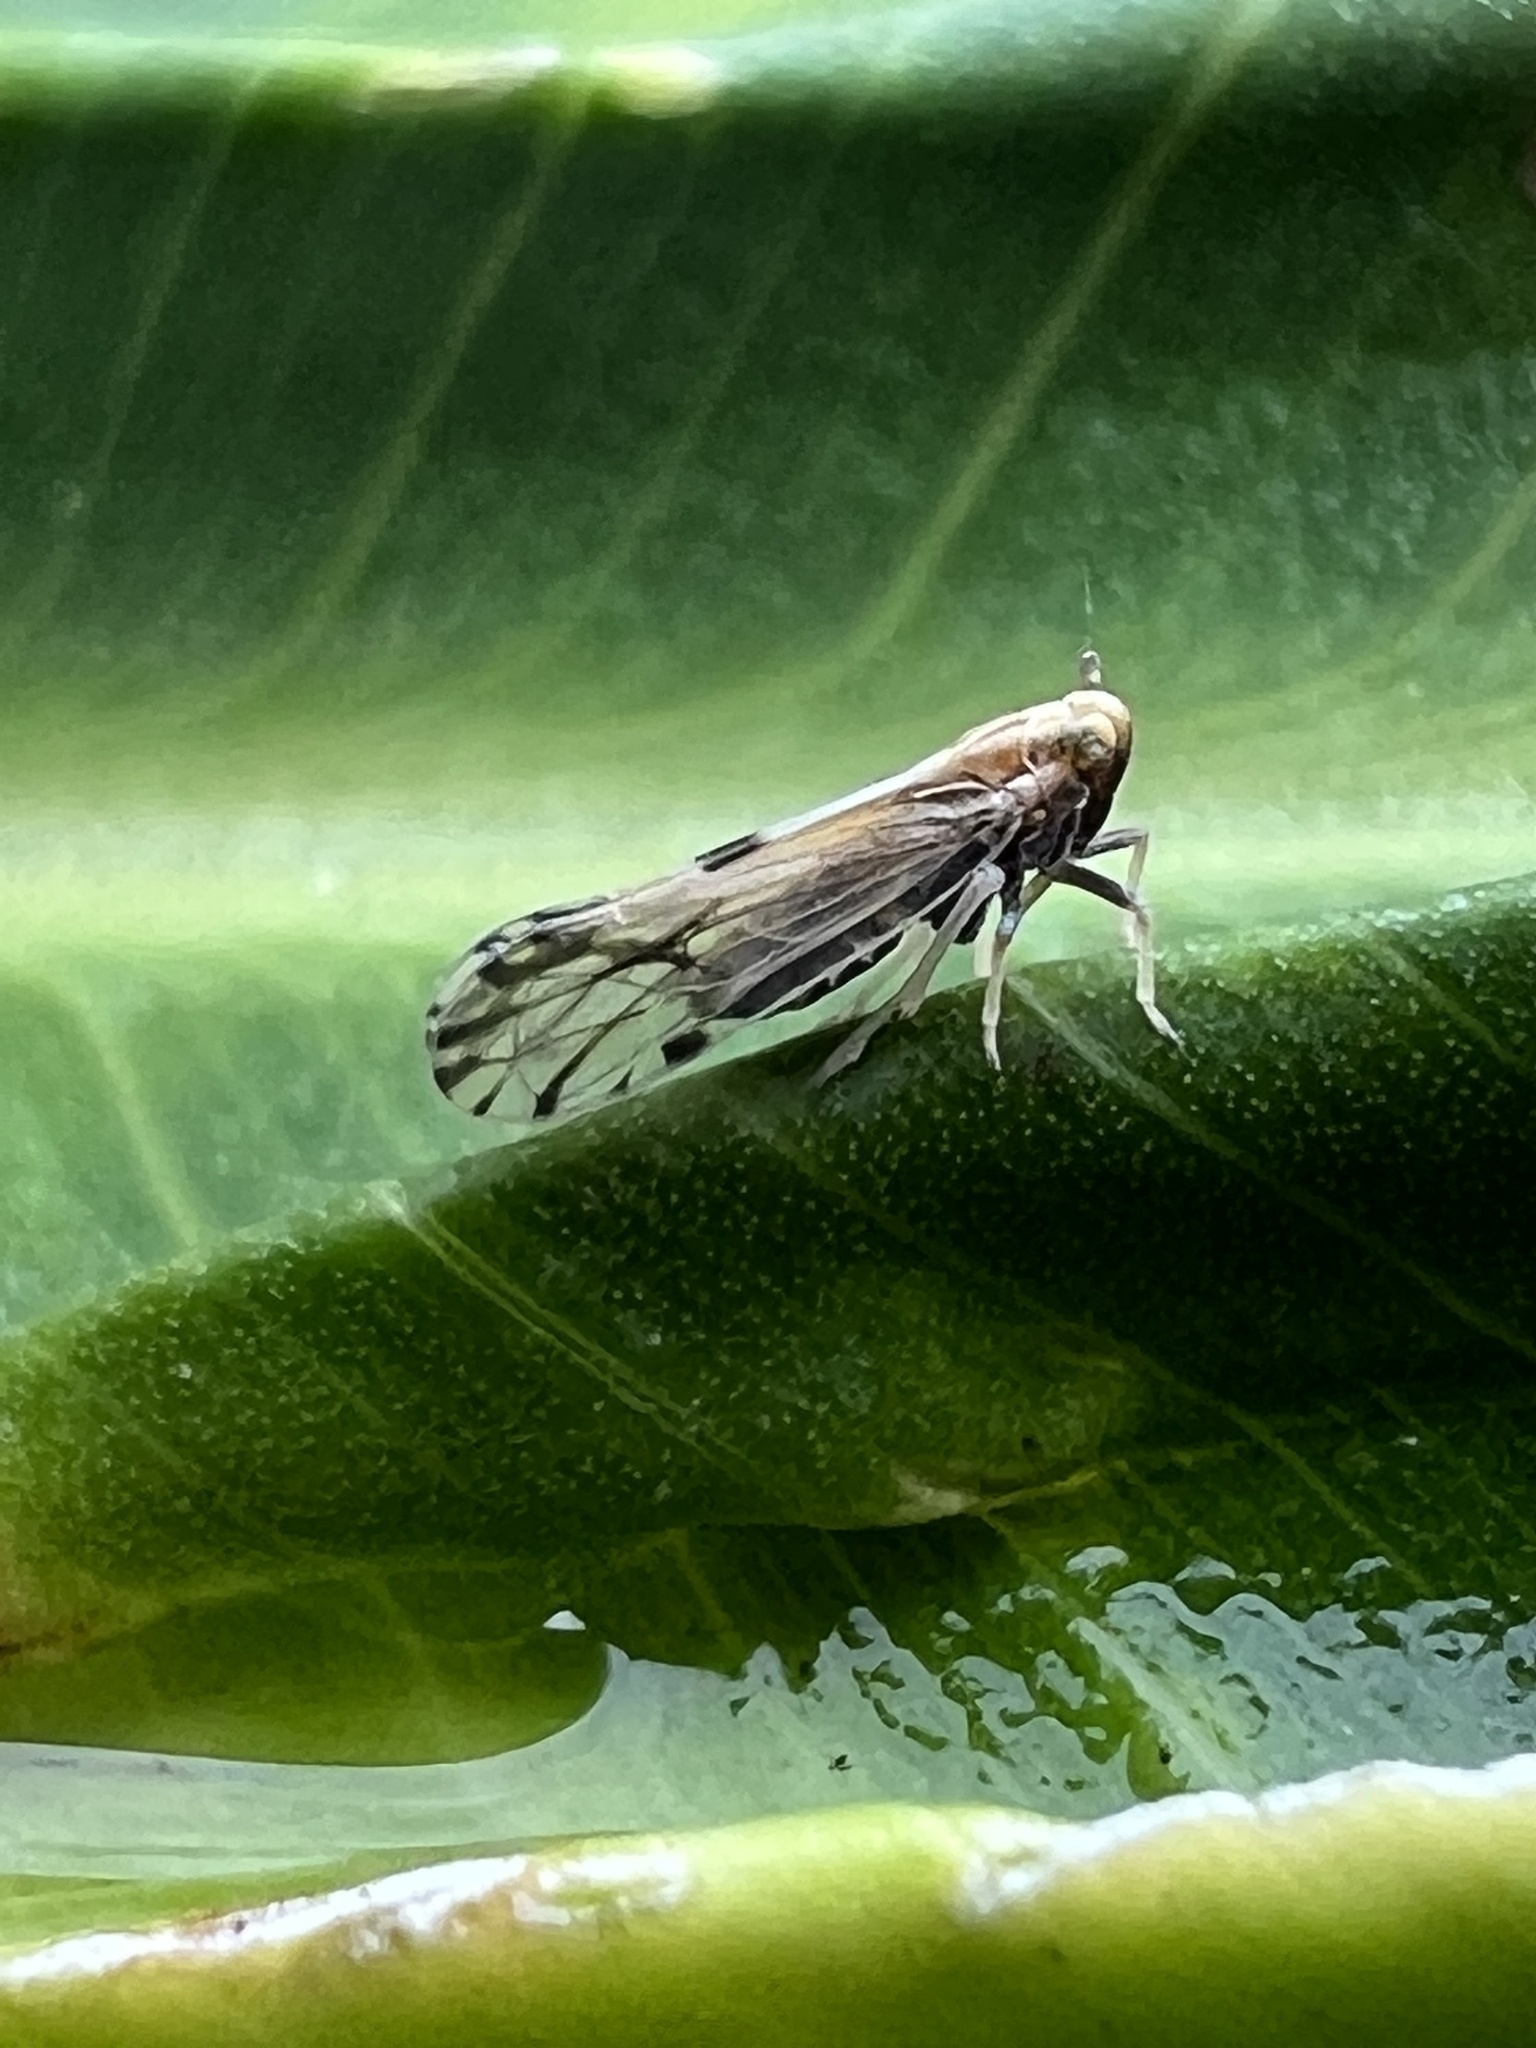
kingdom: Animalia
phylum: Arthropoda
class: Insecta
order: Hemiptera
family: Delphacidae
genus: Peregrinus
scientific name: Peregrinus maidis
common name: Corn leafhopper
